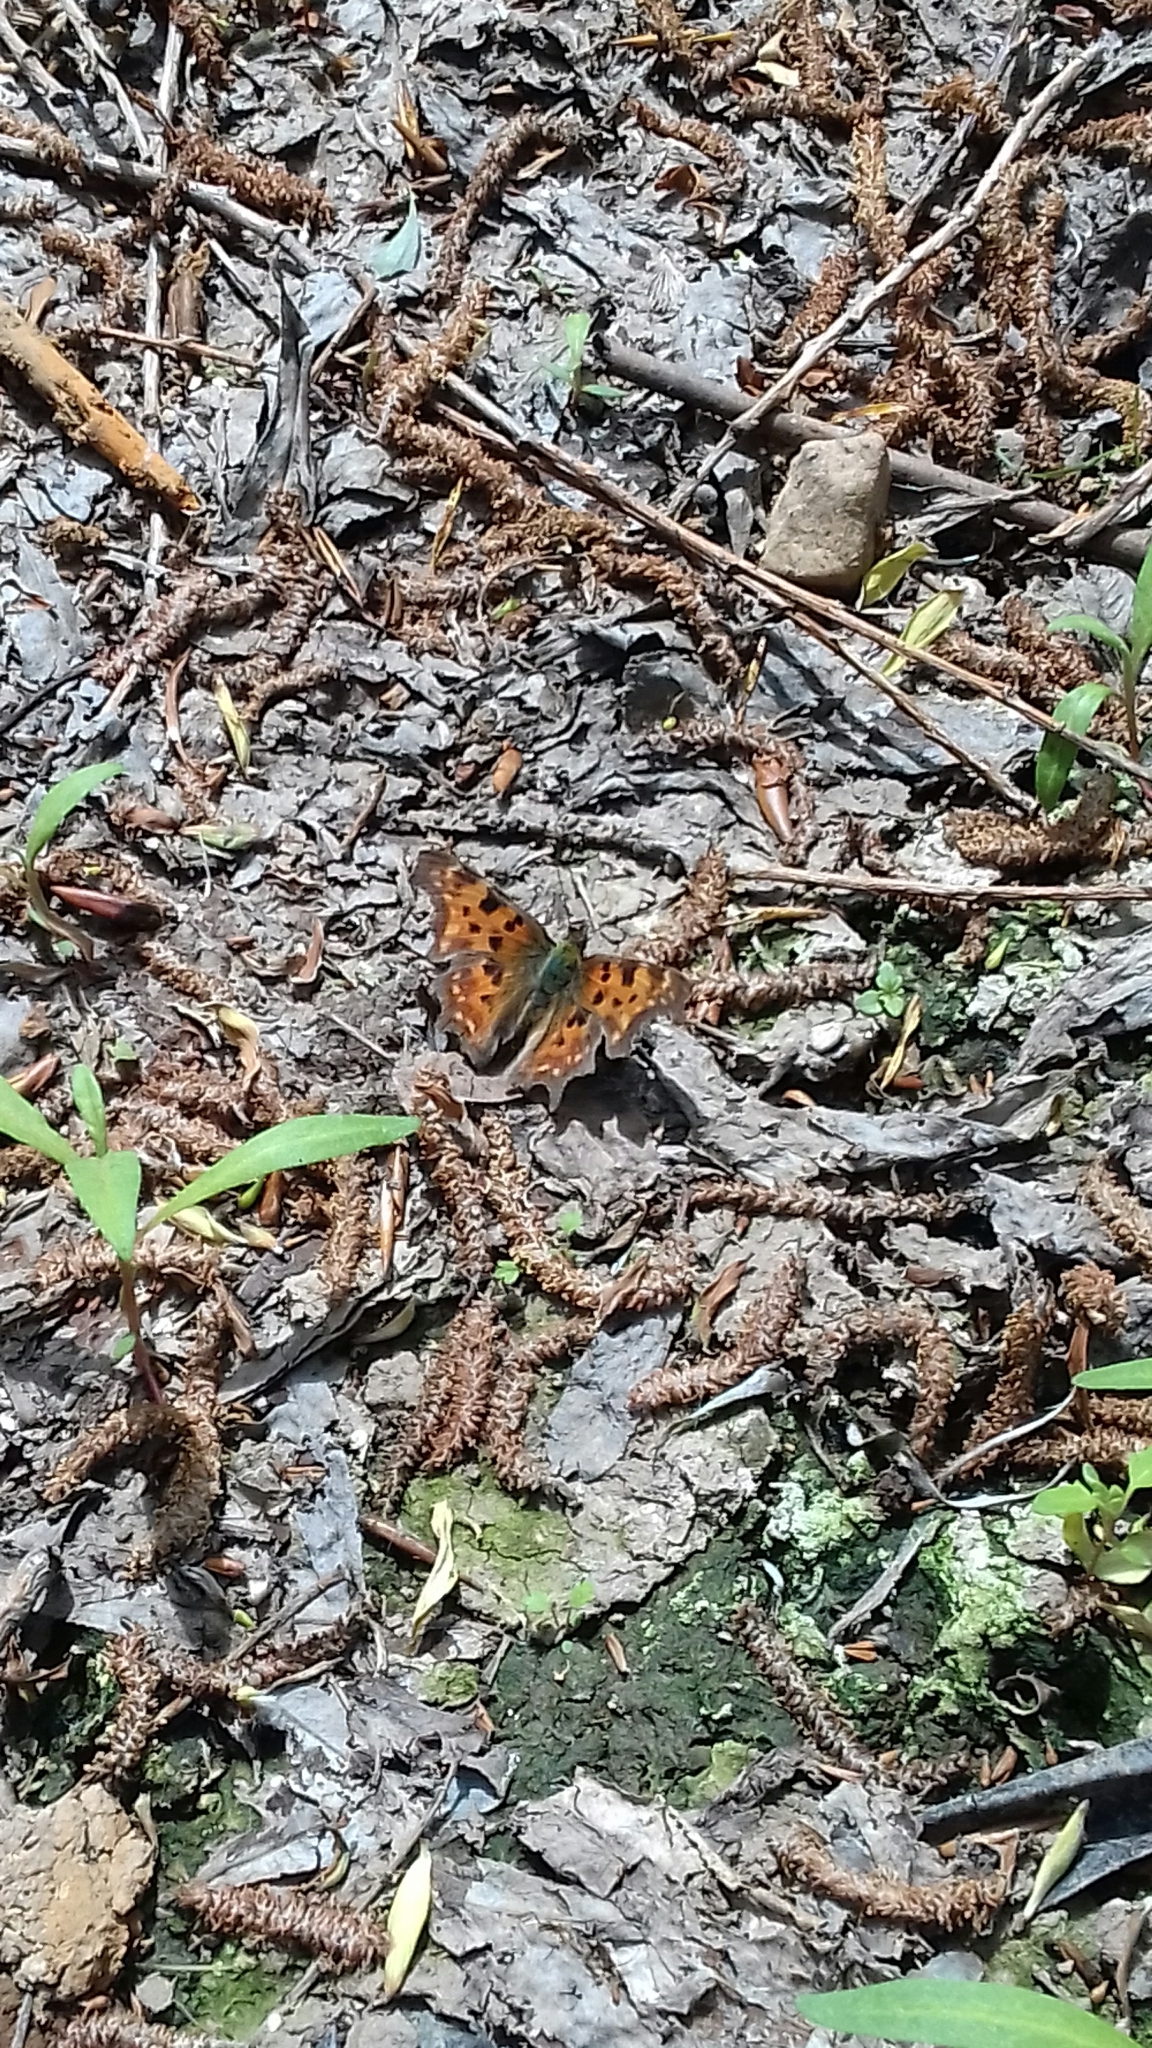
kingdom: Animalia
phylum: Arthropoda
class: Insecta
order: Lepidoptera
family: Nymphalidae
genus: Polygonia
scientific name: Polygonia c-album
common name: Comma
